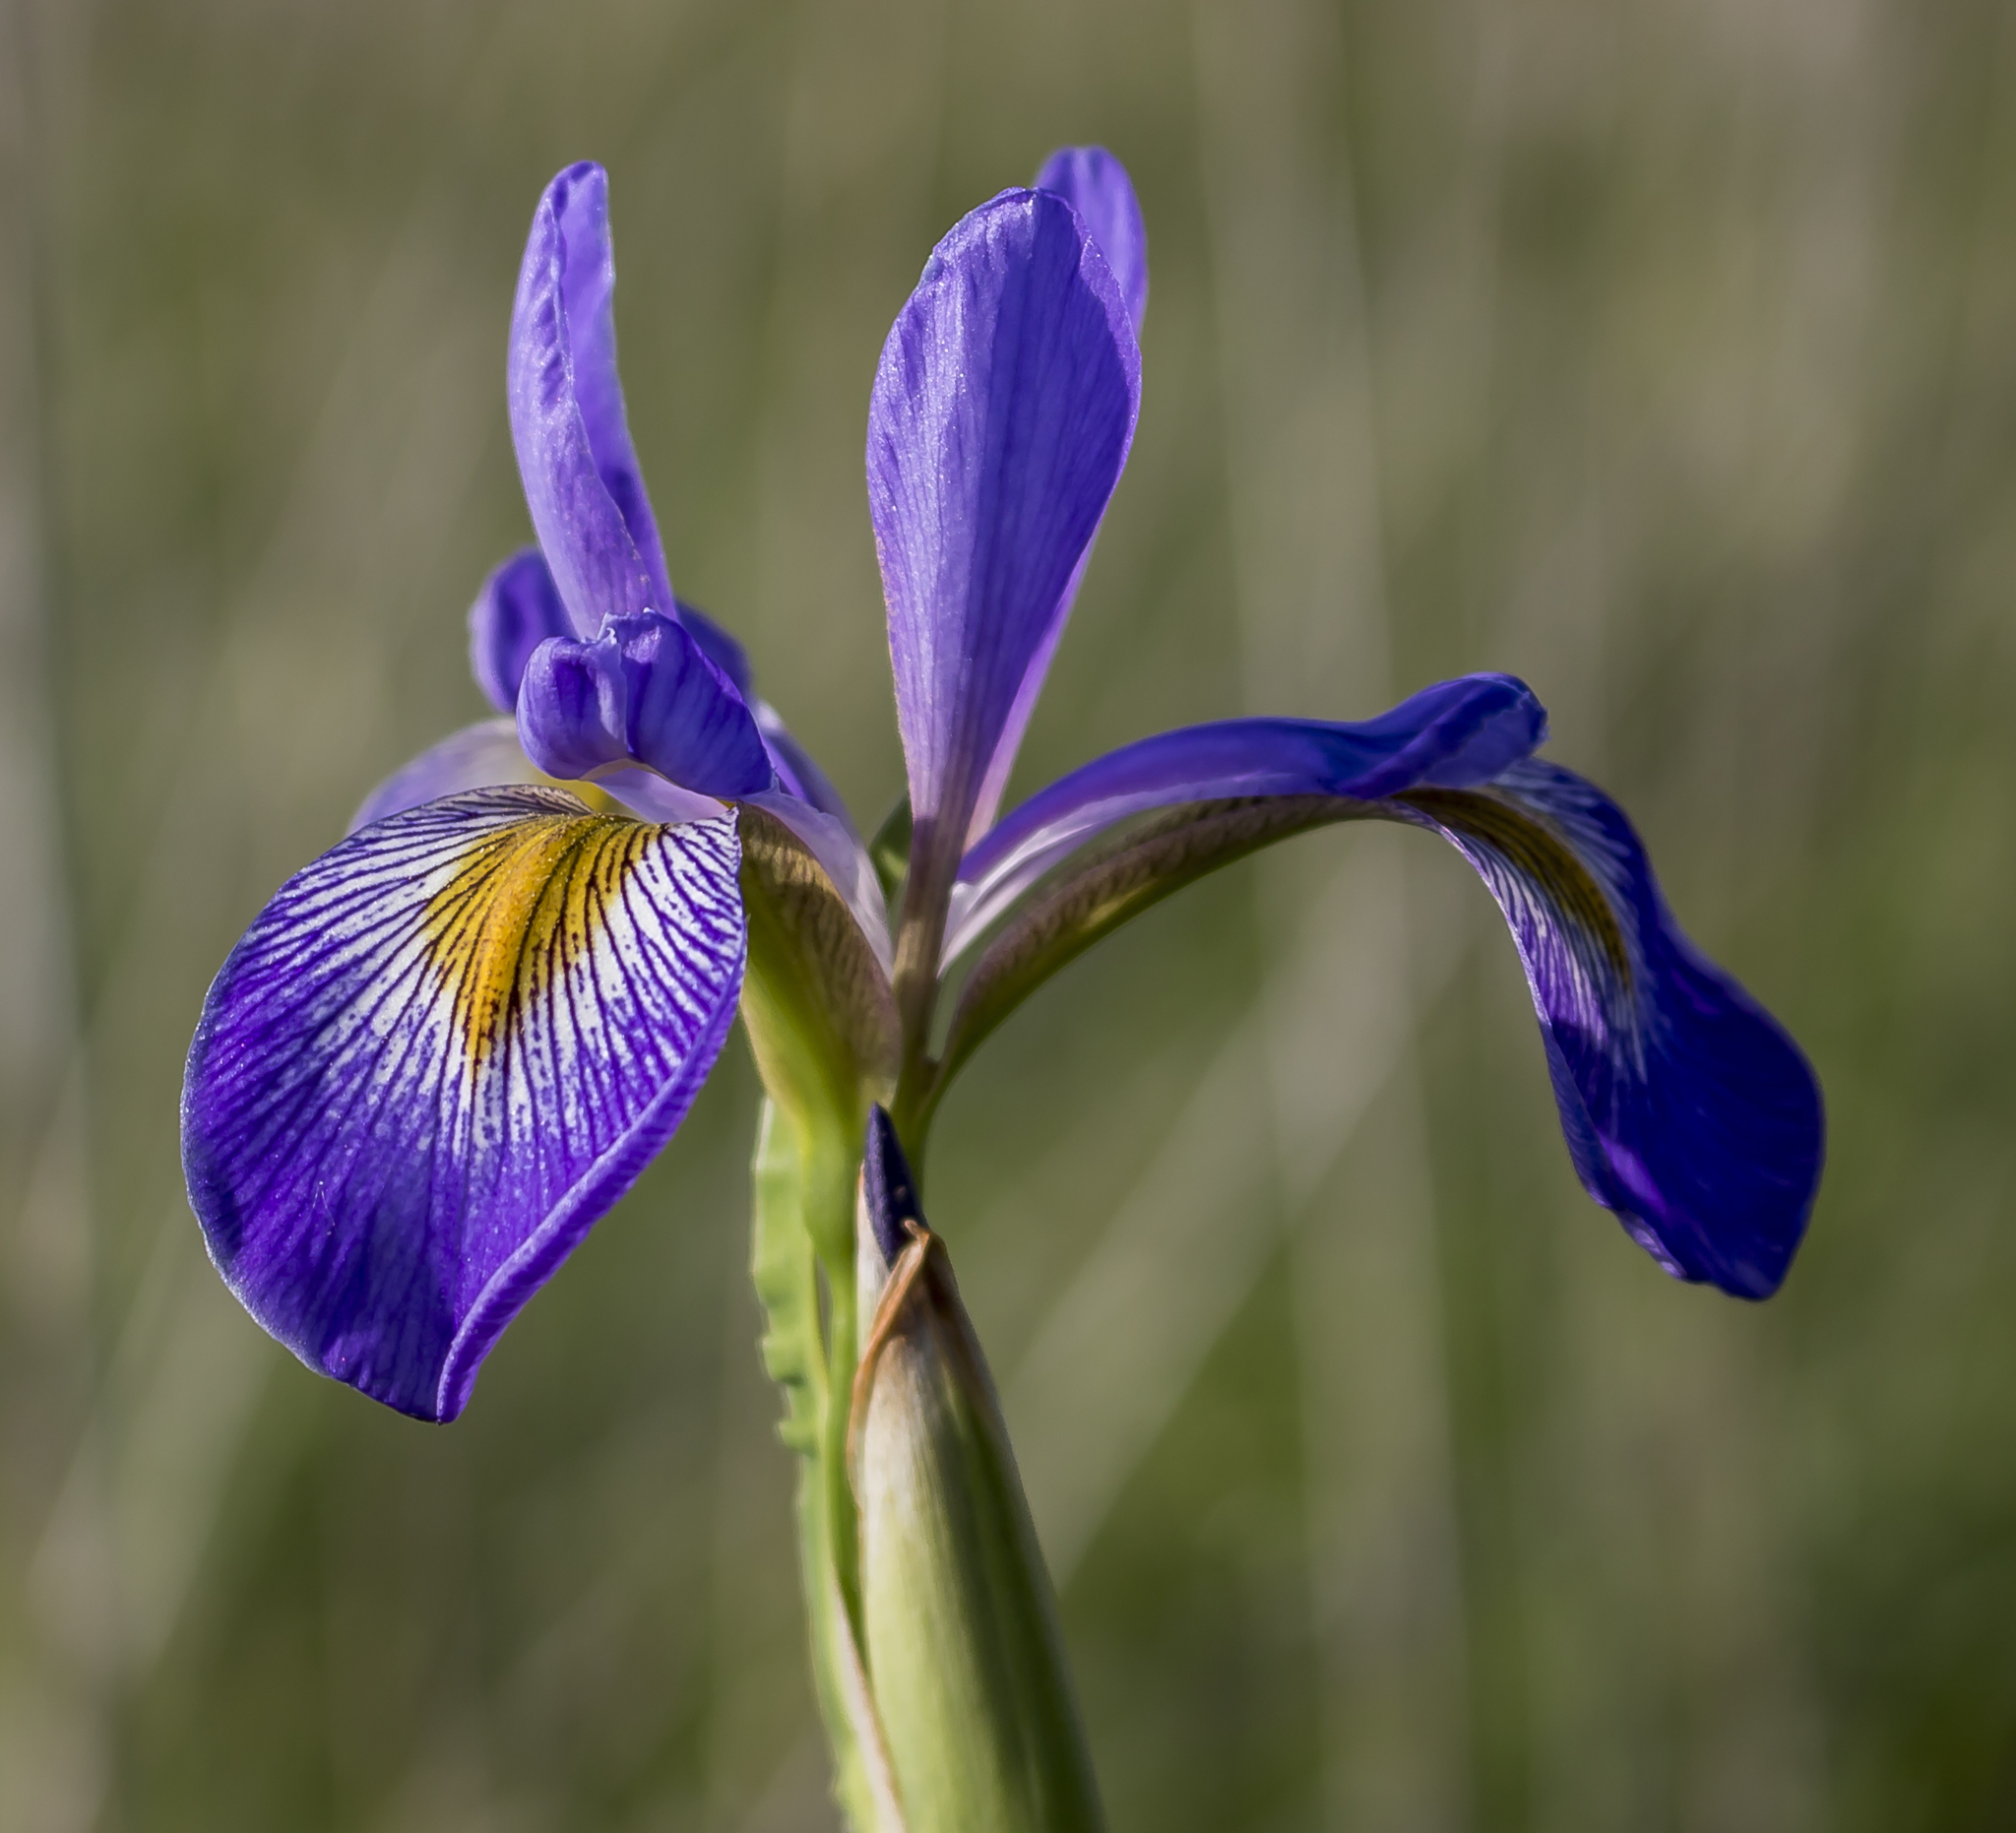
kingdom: Plantae
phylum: Tracheophyta
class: Liliopsida
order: Asparagales
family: Iridaceae
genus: Iris
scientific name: Iris virginica
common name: Southern blue flag
